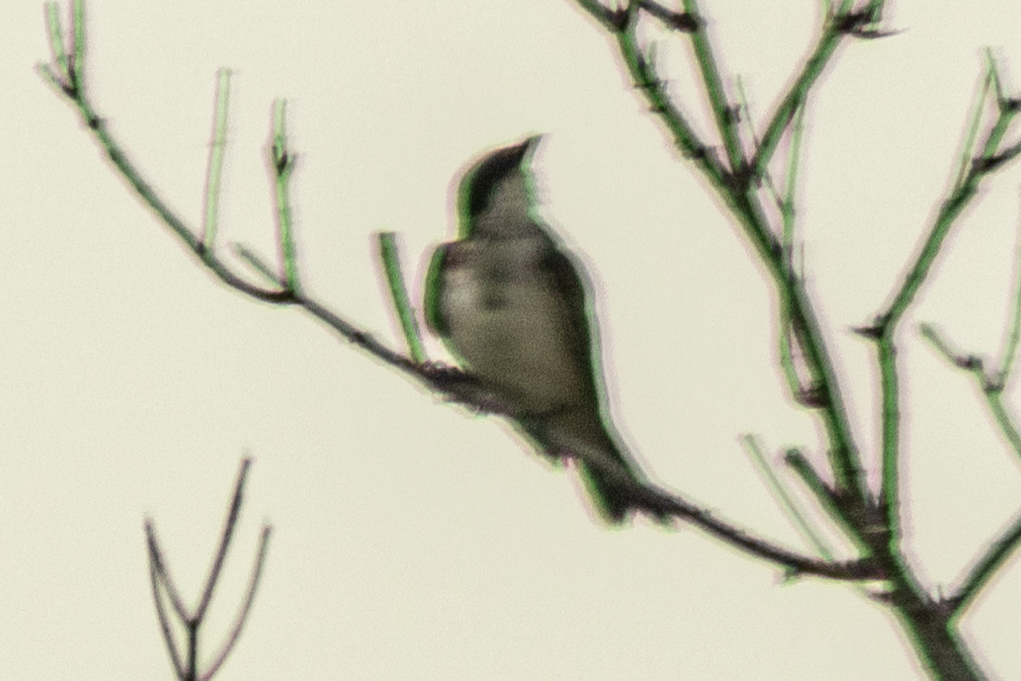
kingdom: Animalia
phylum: Chordata
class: Aves
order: Passeriformes
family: Tyrannidae
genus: Tyrannus
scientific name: Tyrannus tyrannus
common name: Eastern kingbird
